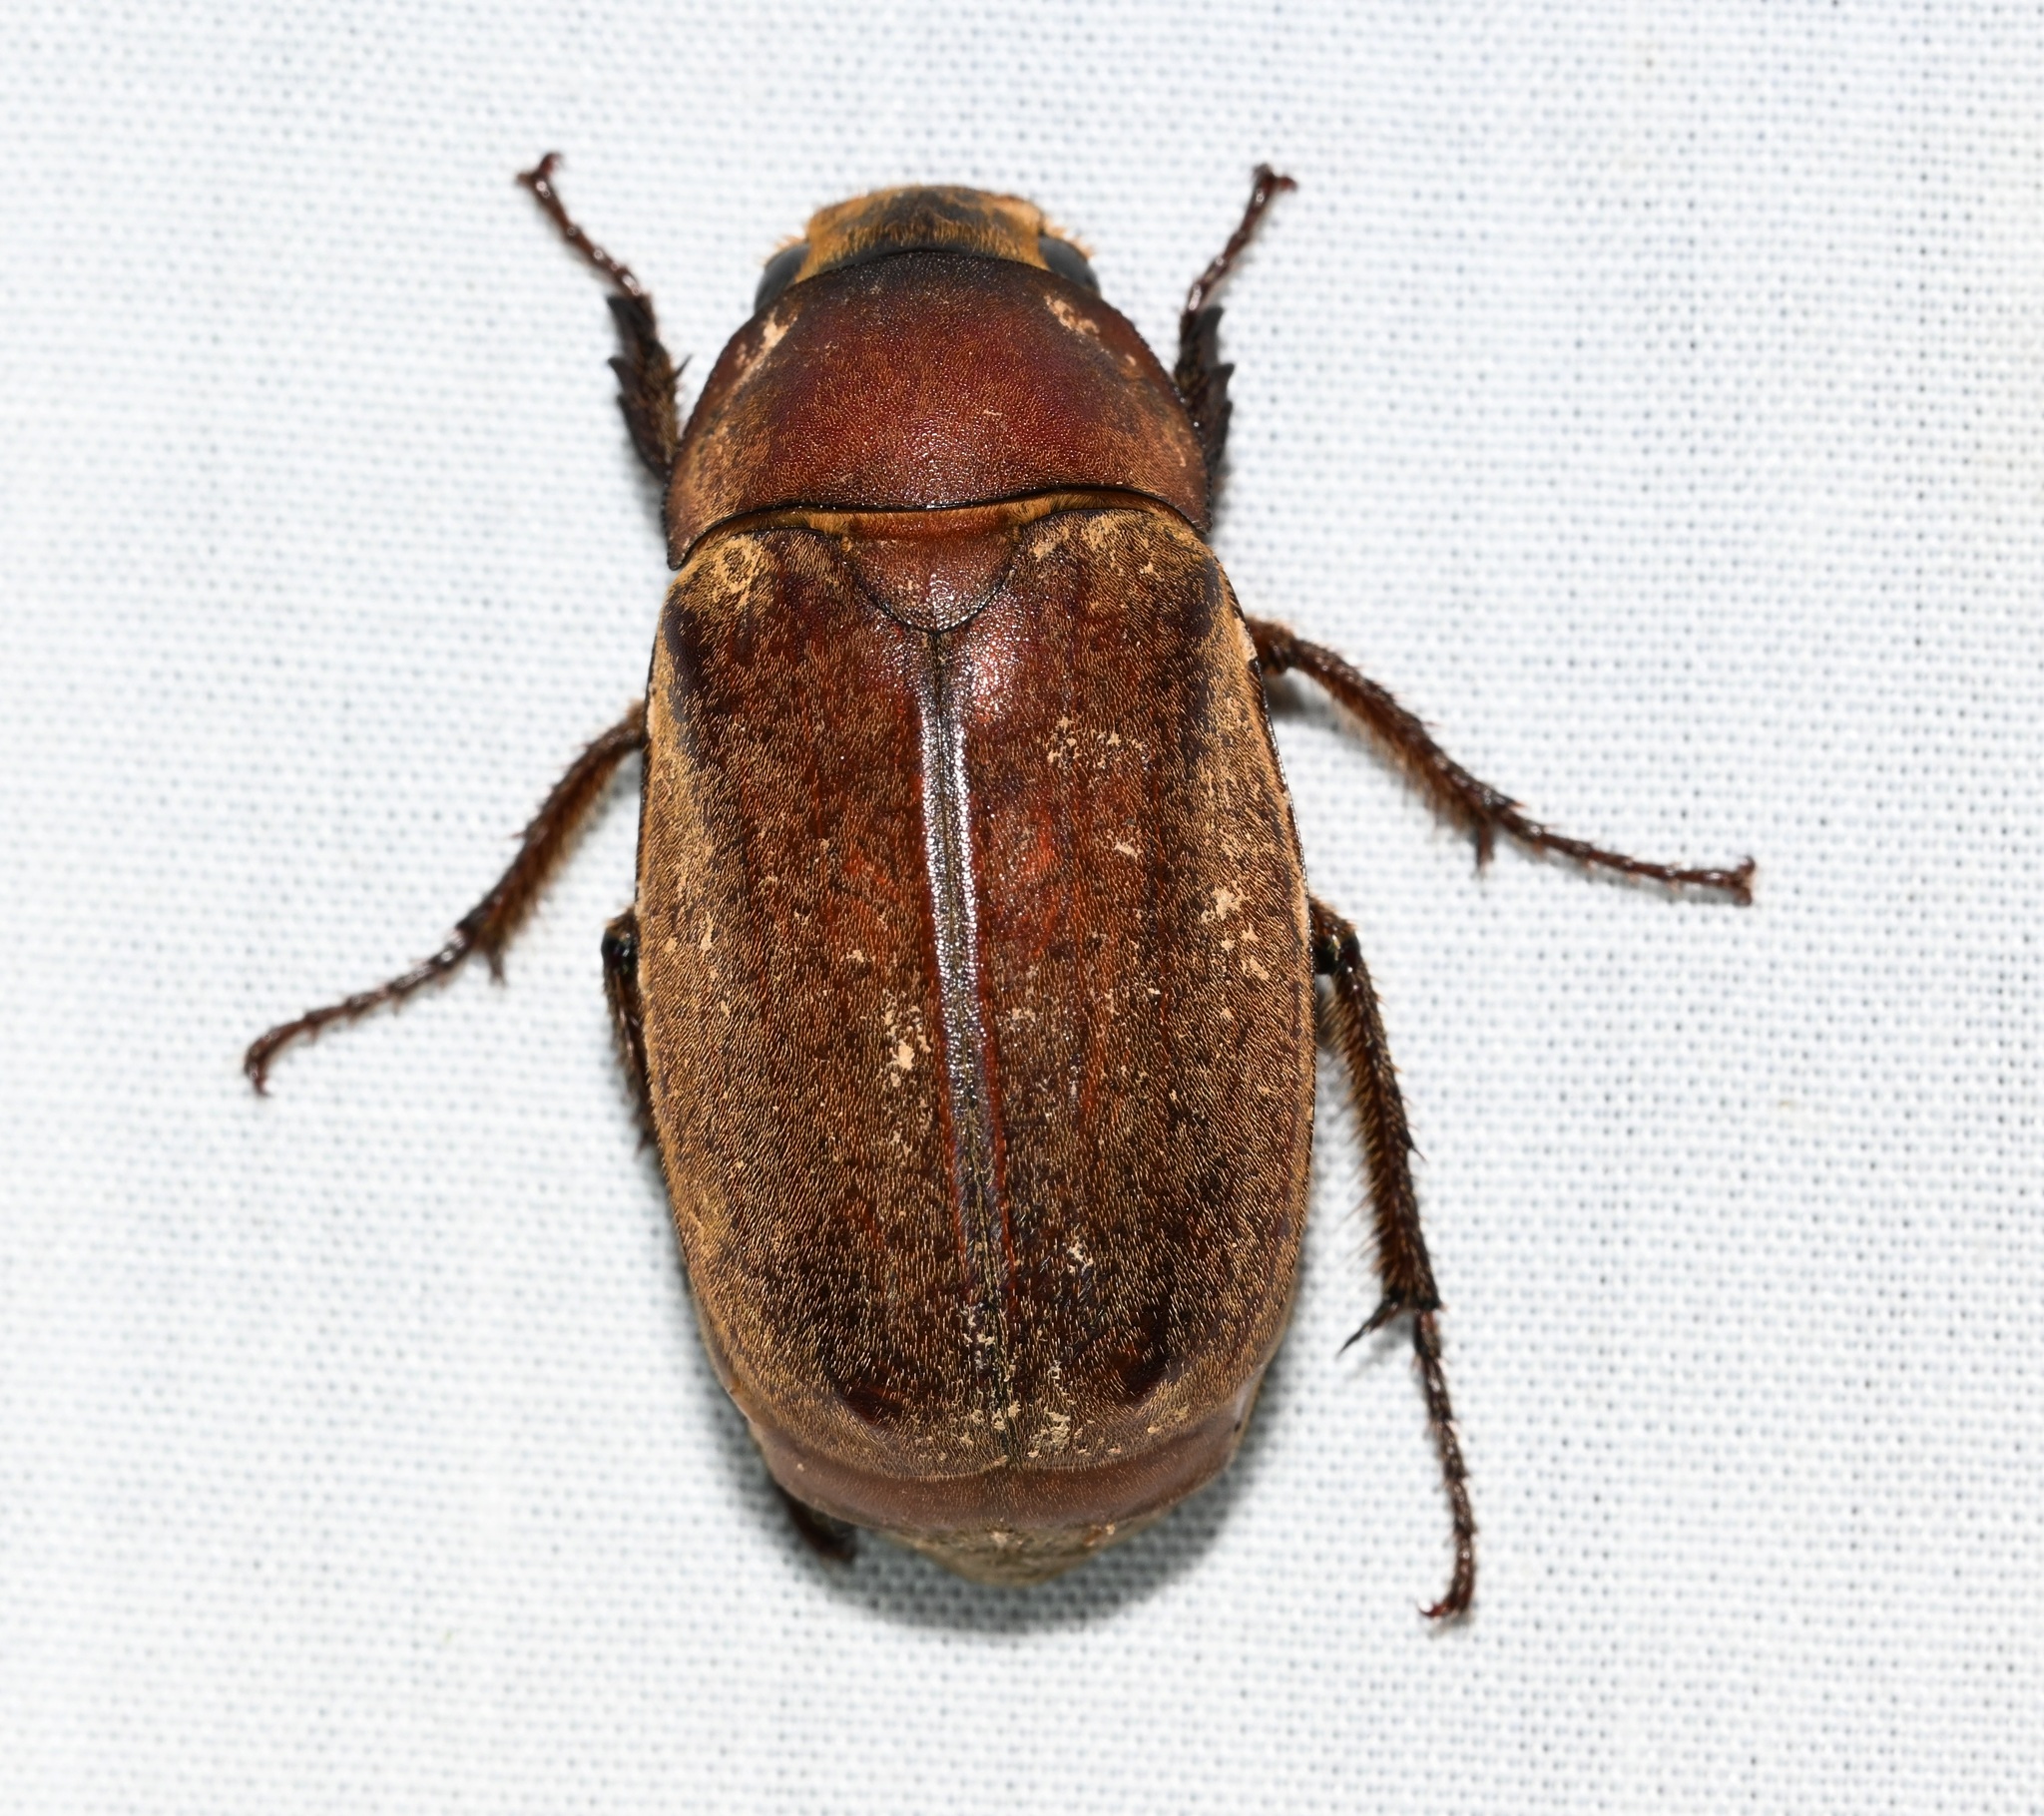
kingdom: Animalia
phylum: Arthropoda
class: Insecta
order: Coleoptera
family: Scarabaeidae
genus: Exolontha
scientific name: Exolontha serrulata
